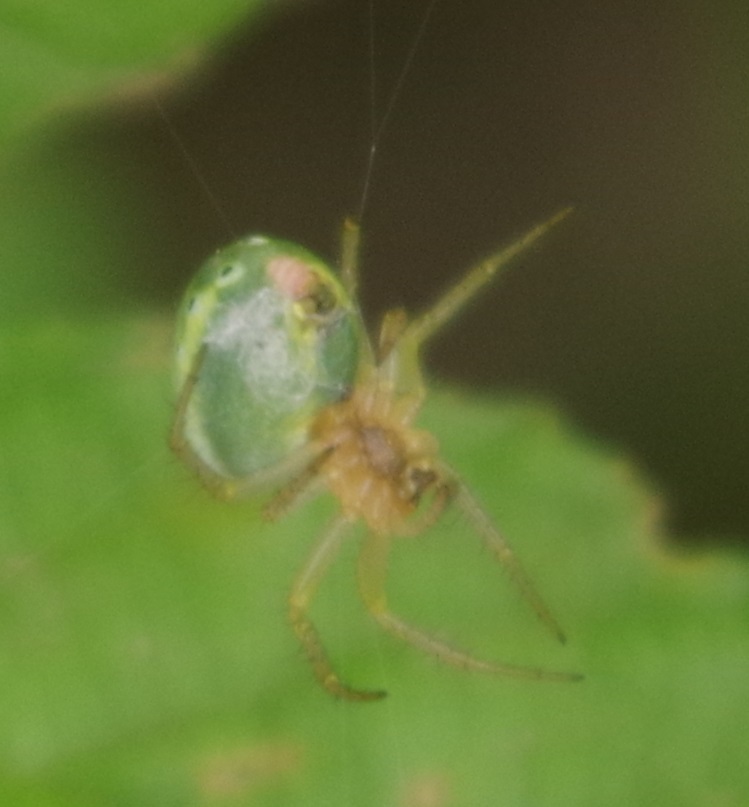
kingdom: Animalia
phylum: Arthropoda
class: Arachnida
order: Araneae
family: Araneidae
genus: Araniella
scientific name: Araniella cucurbitina
